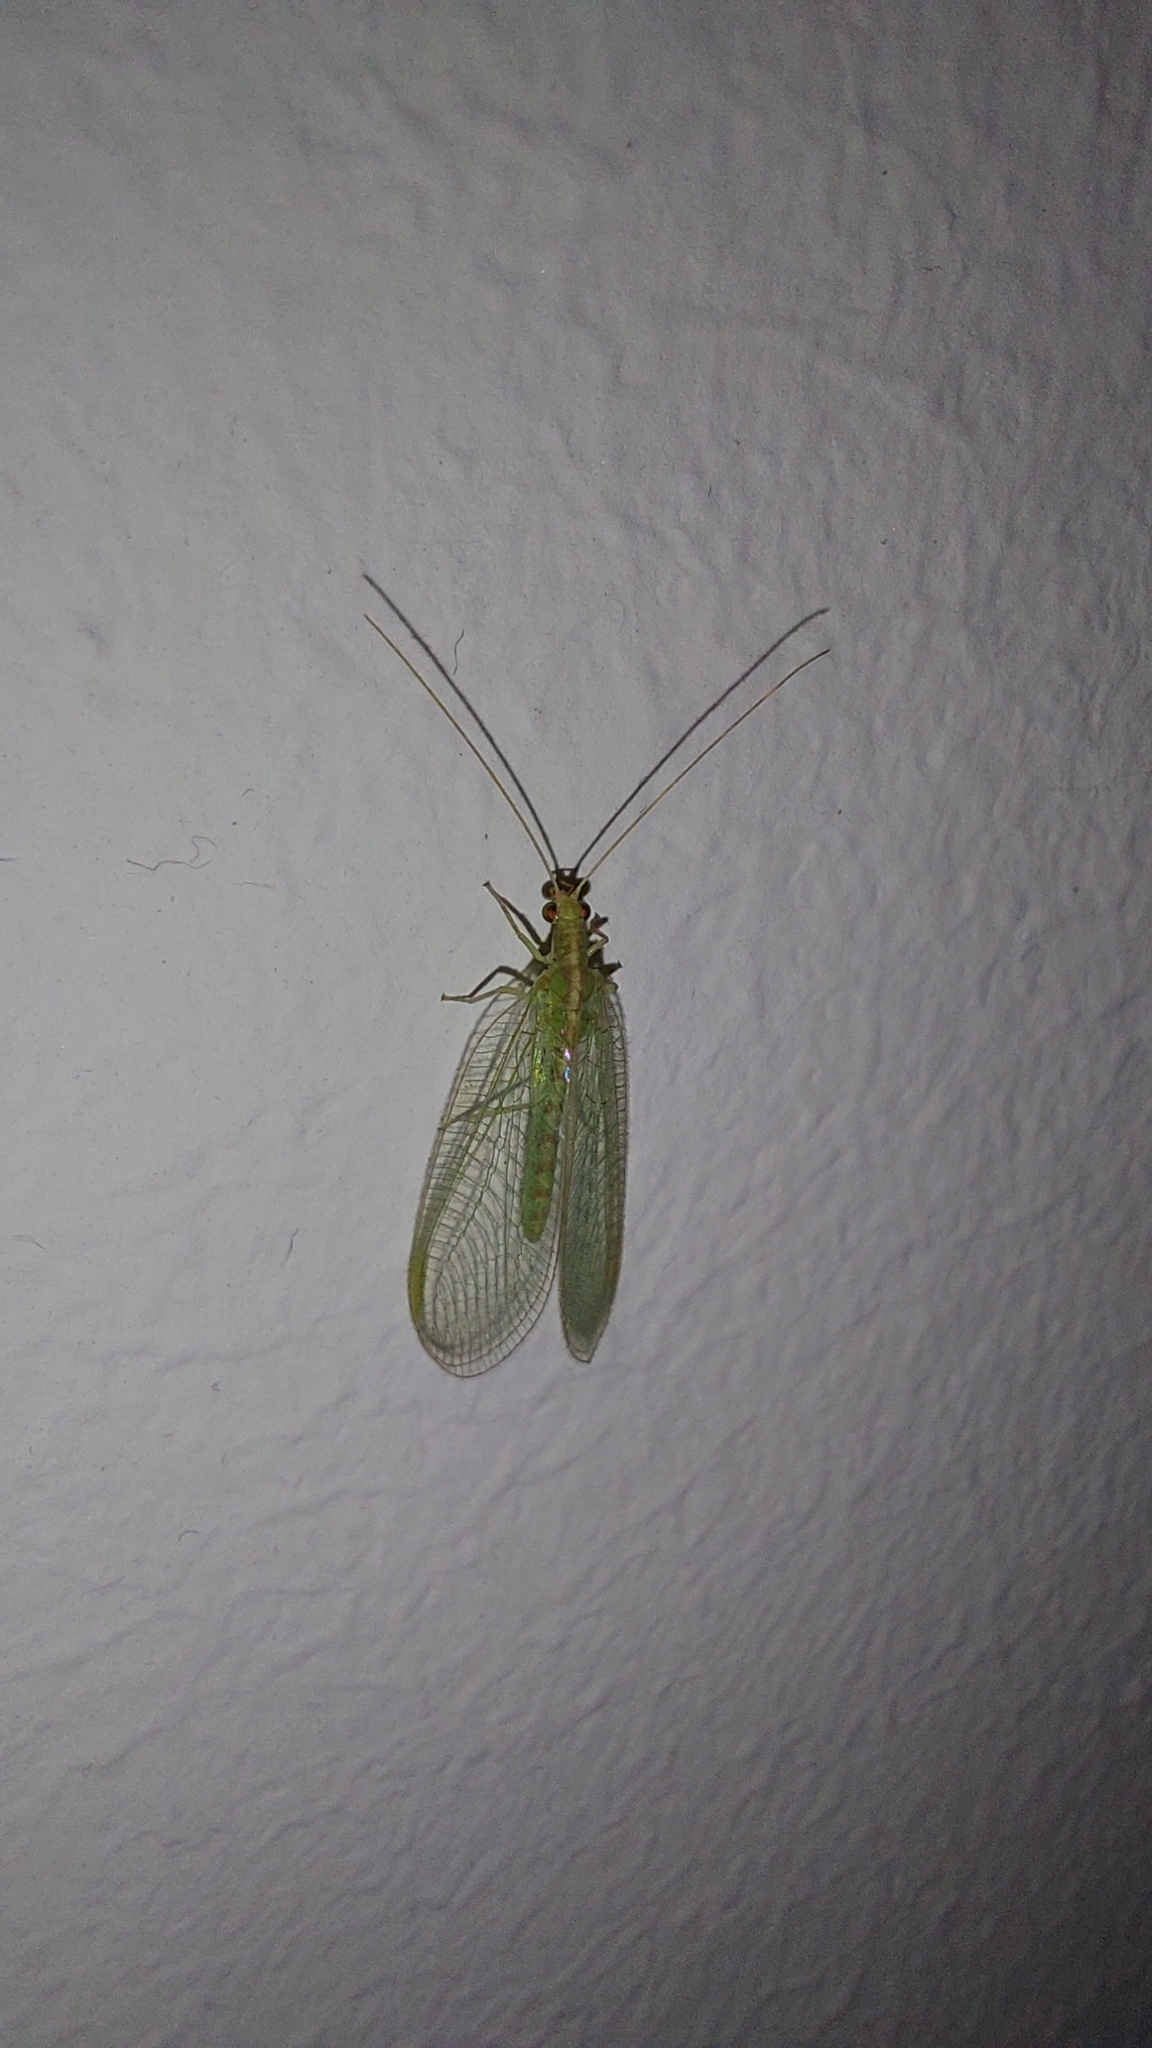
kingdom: Animalia
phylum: Arthropoda
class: Insecta
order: Neuroptera
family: Chrysopidae
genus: Chrysoperla
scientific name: Chrysoperla
